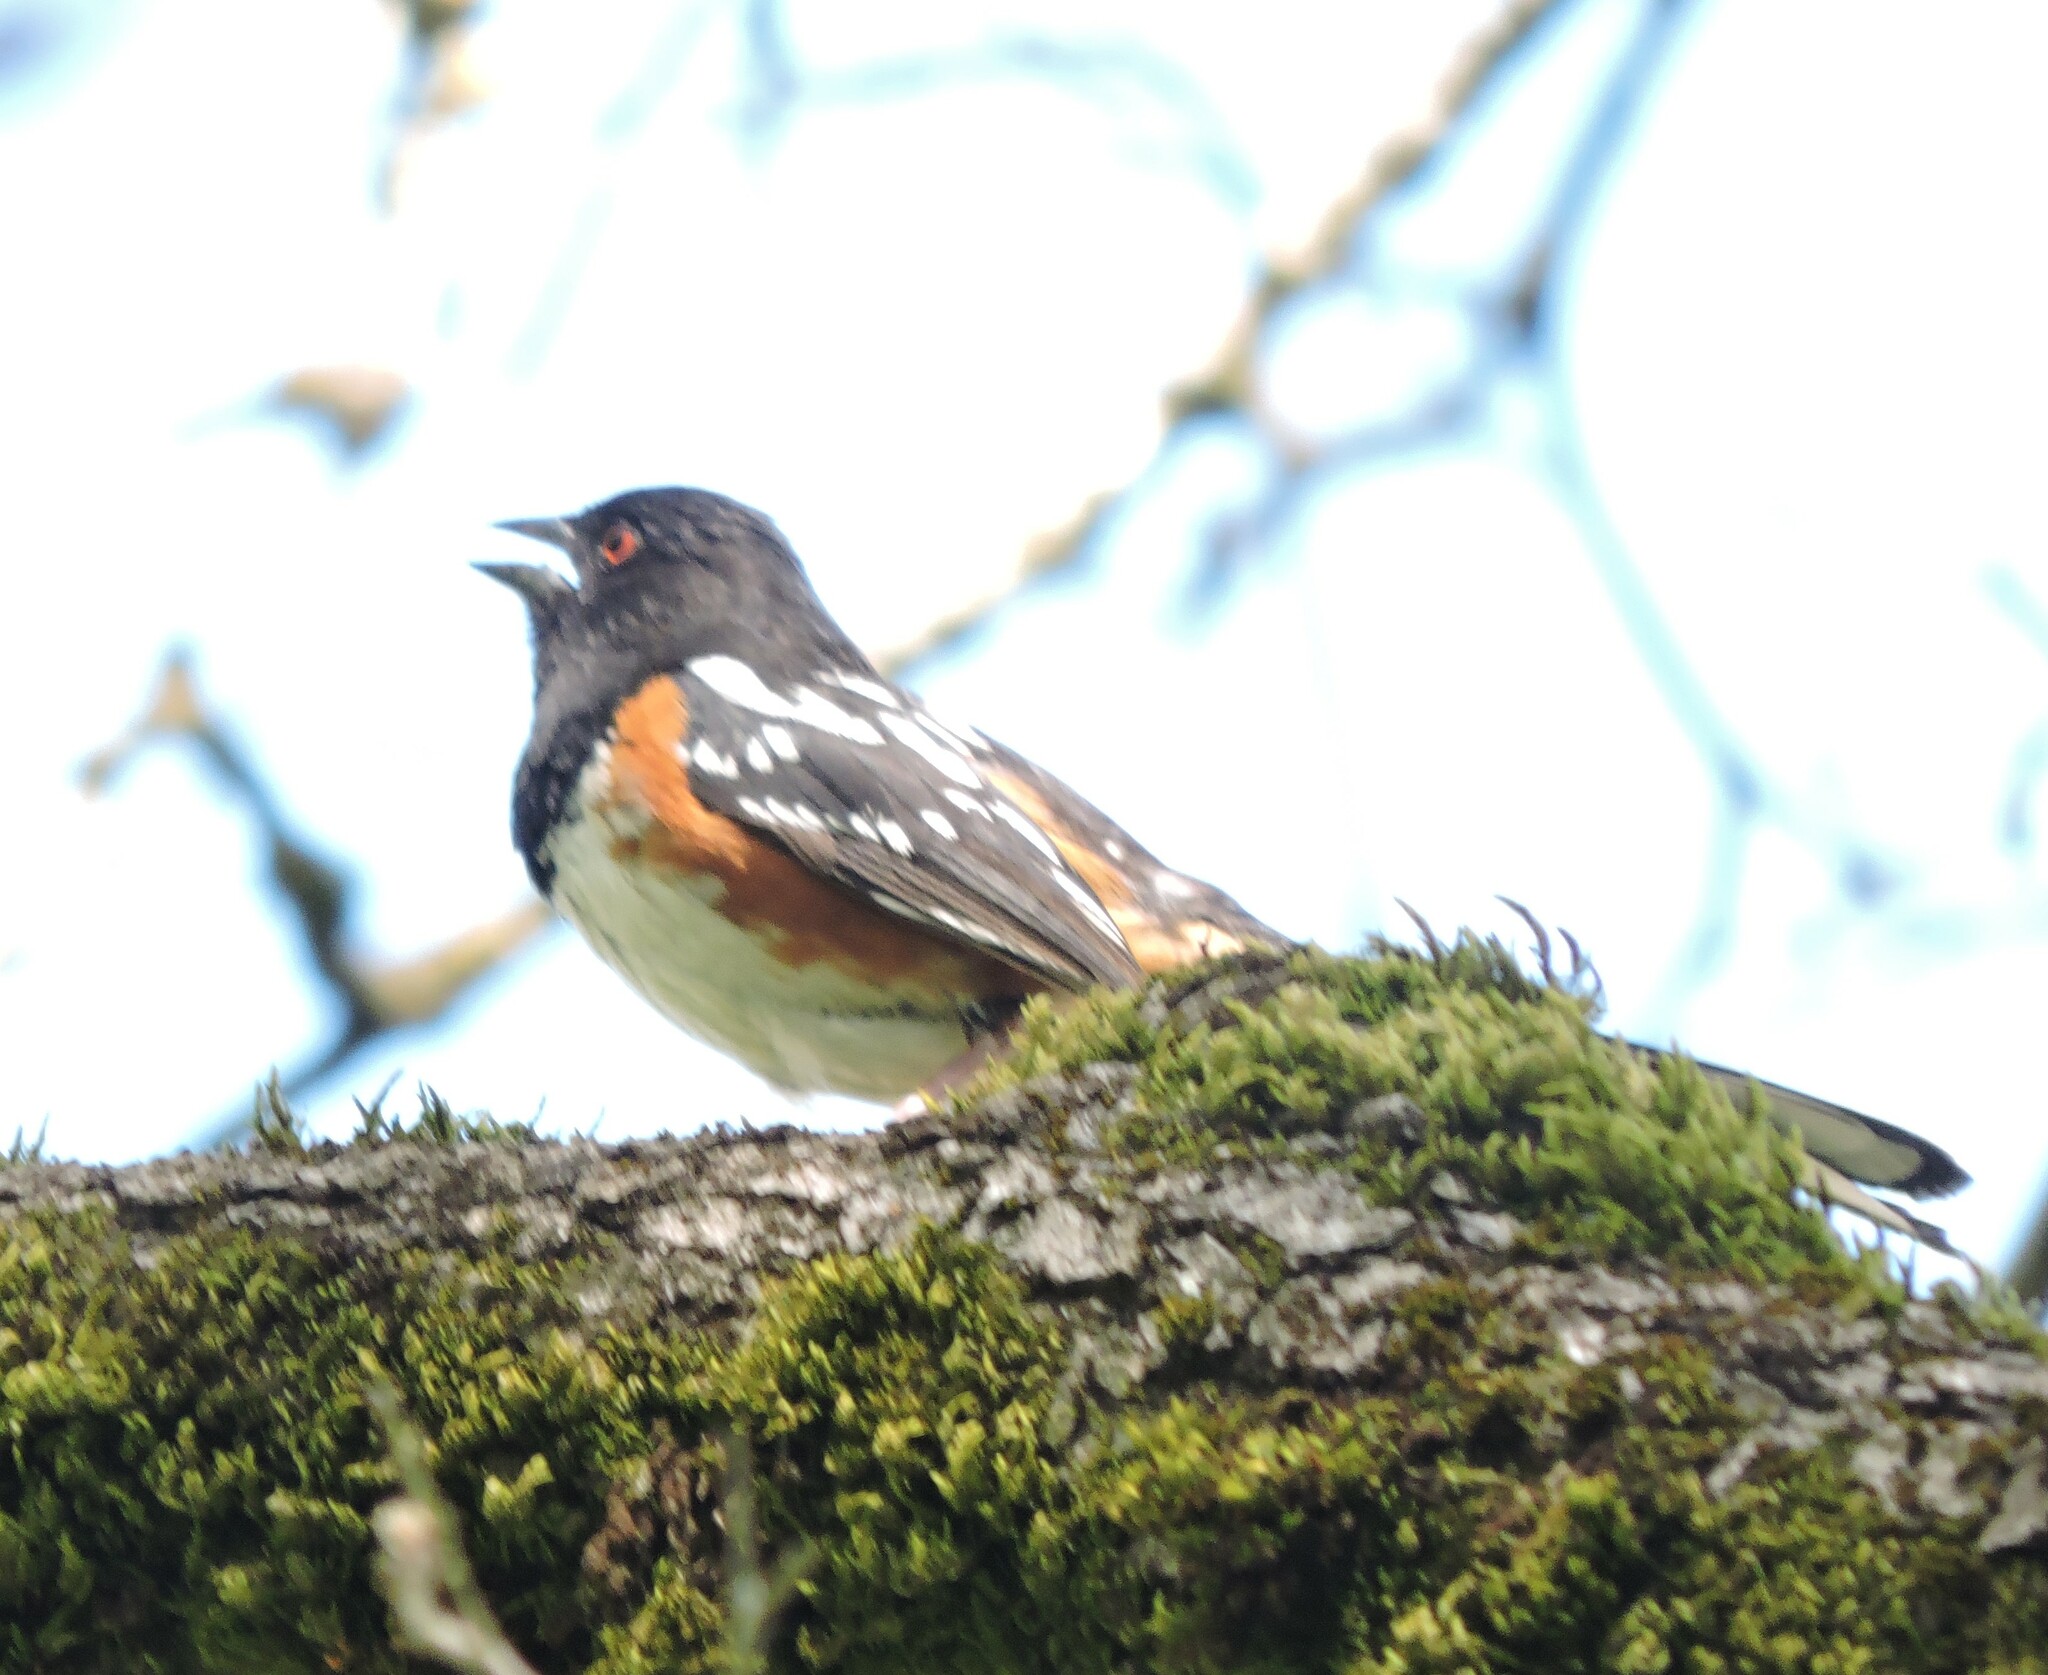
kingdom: Animalia
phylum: Chordata
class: Aves
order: Passeriformes
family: Passerellidae
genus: Pipilo
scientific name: Pipilo maculatus
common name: Spotted towhee
